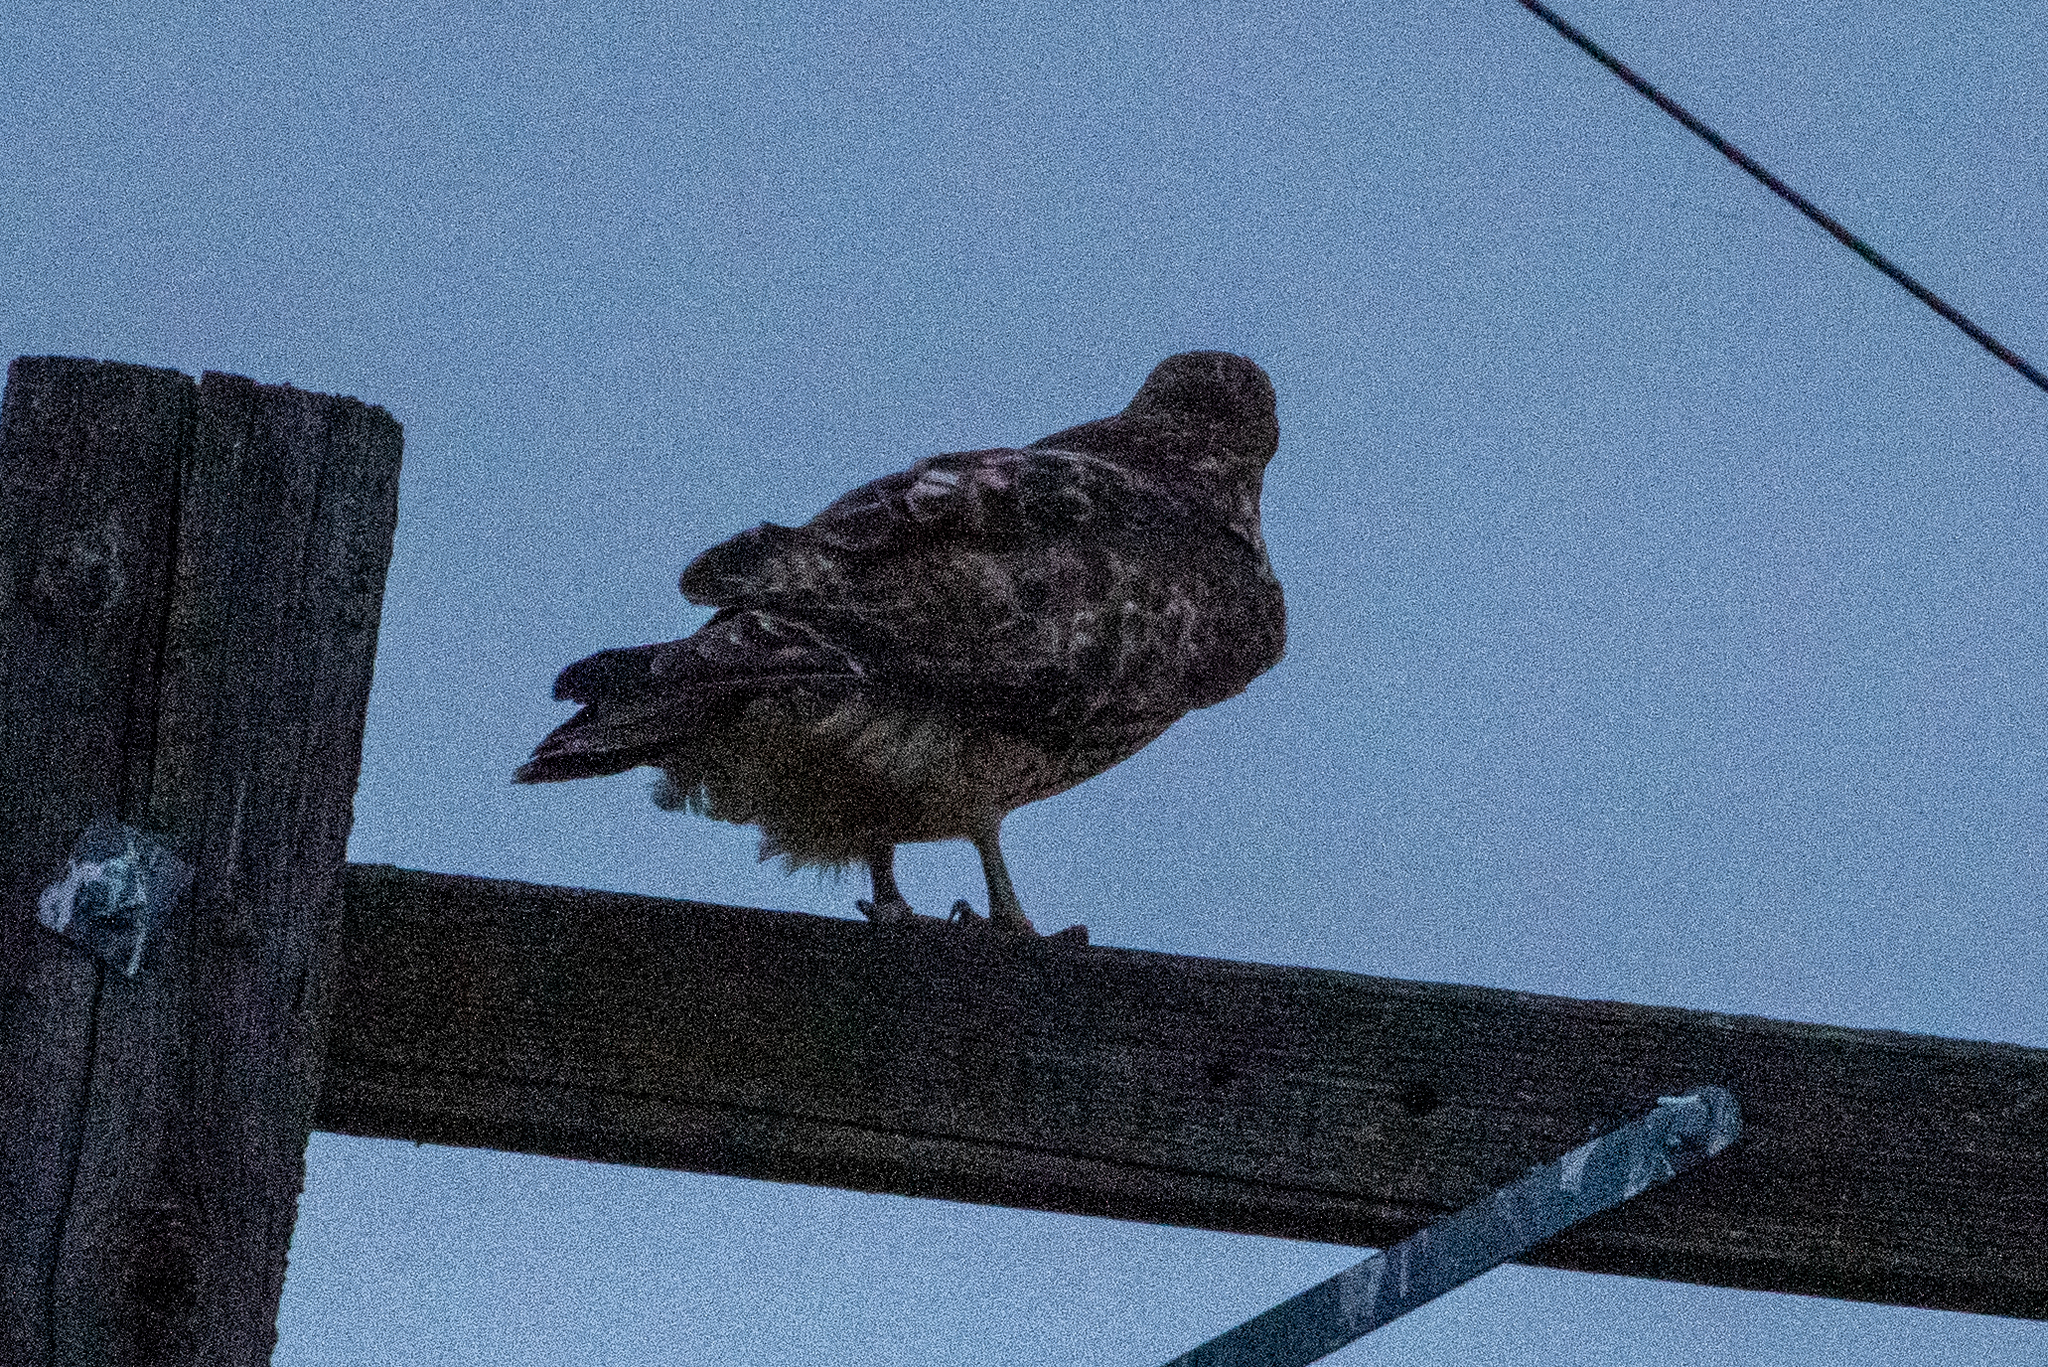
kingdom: Animalia
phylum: Chordata
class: Aves
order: Accipitriformes
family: Accipitridae
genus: Buteo
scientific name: Buteo jamaicensis
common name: Red-tailed hawk
